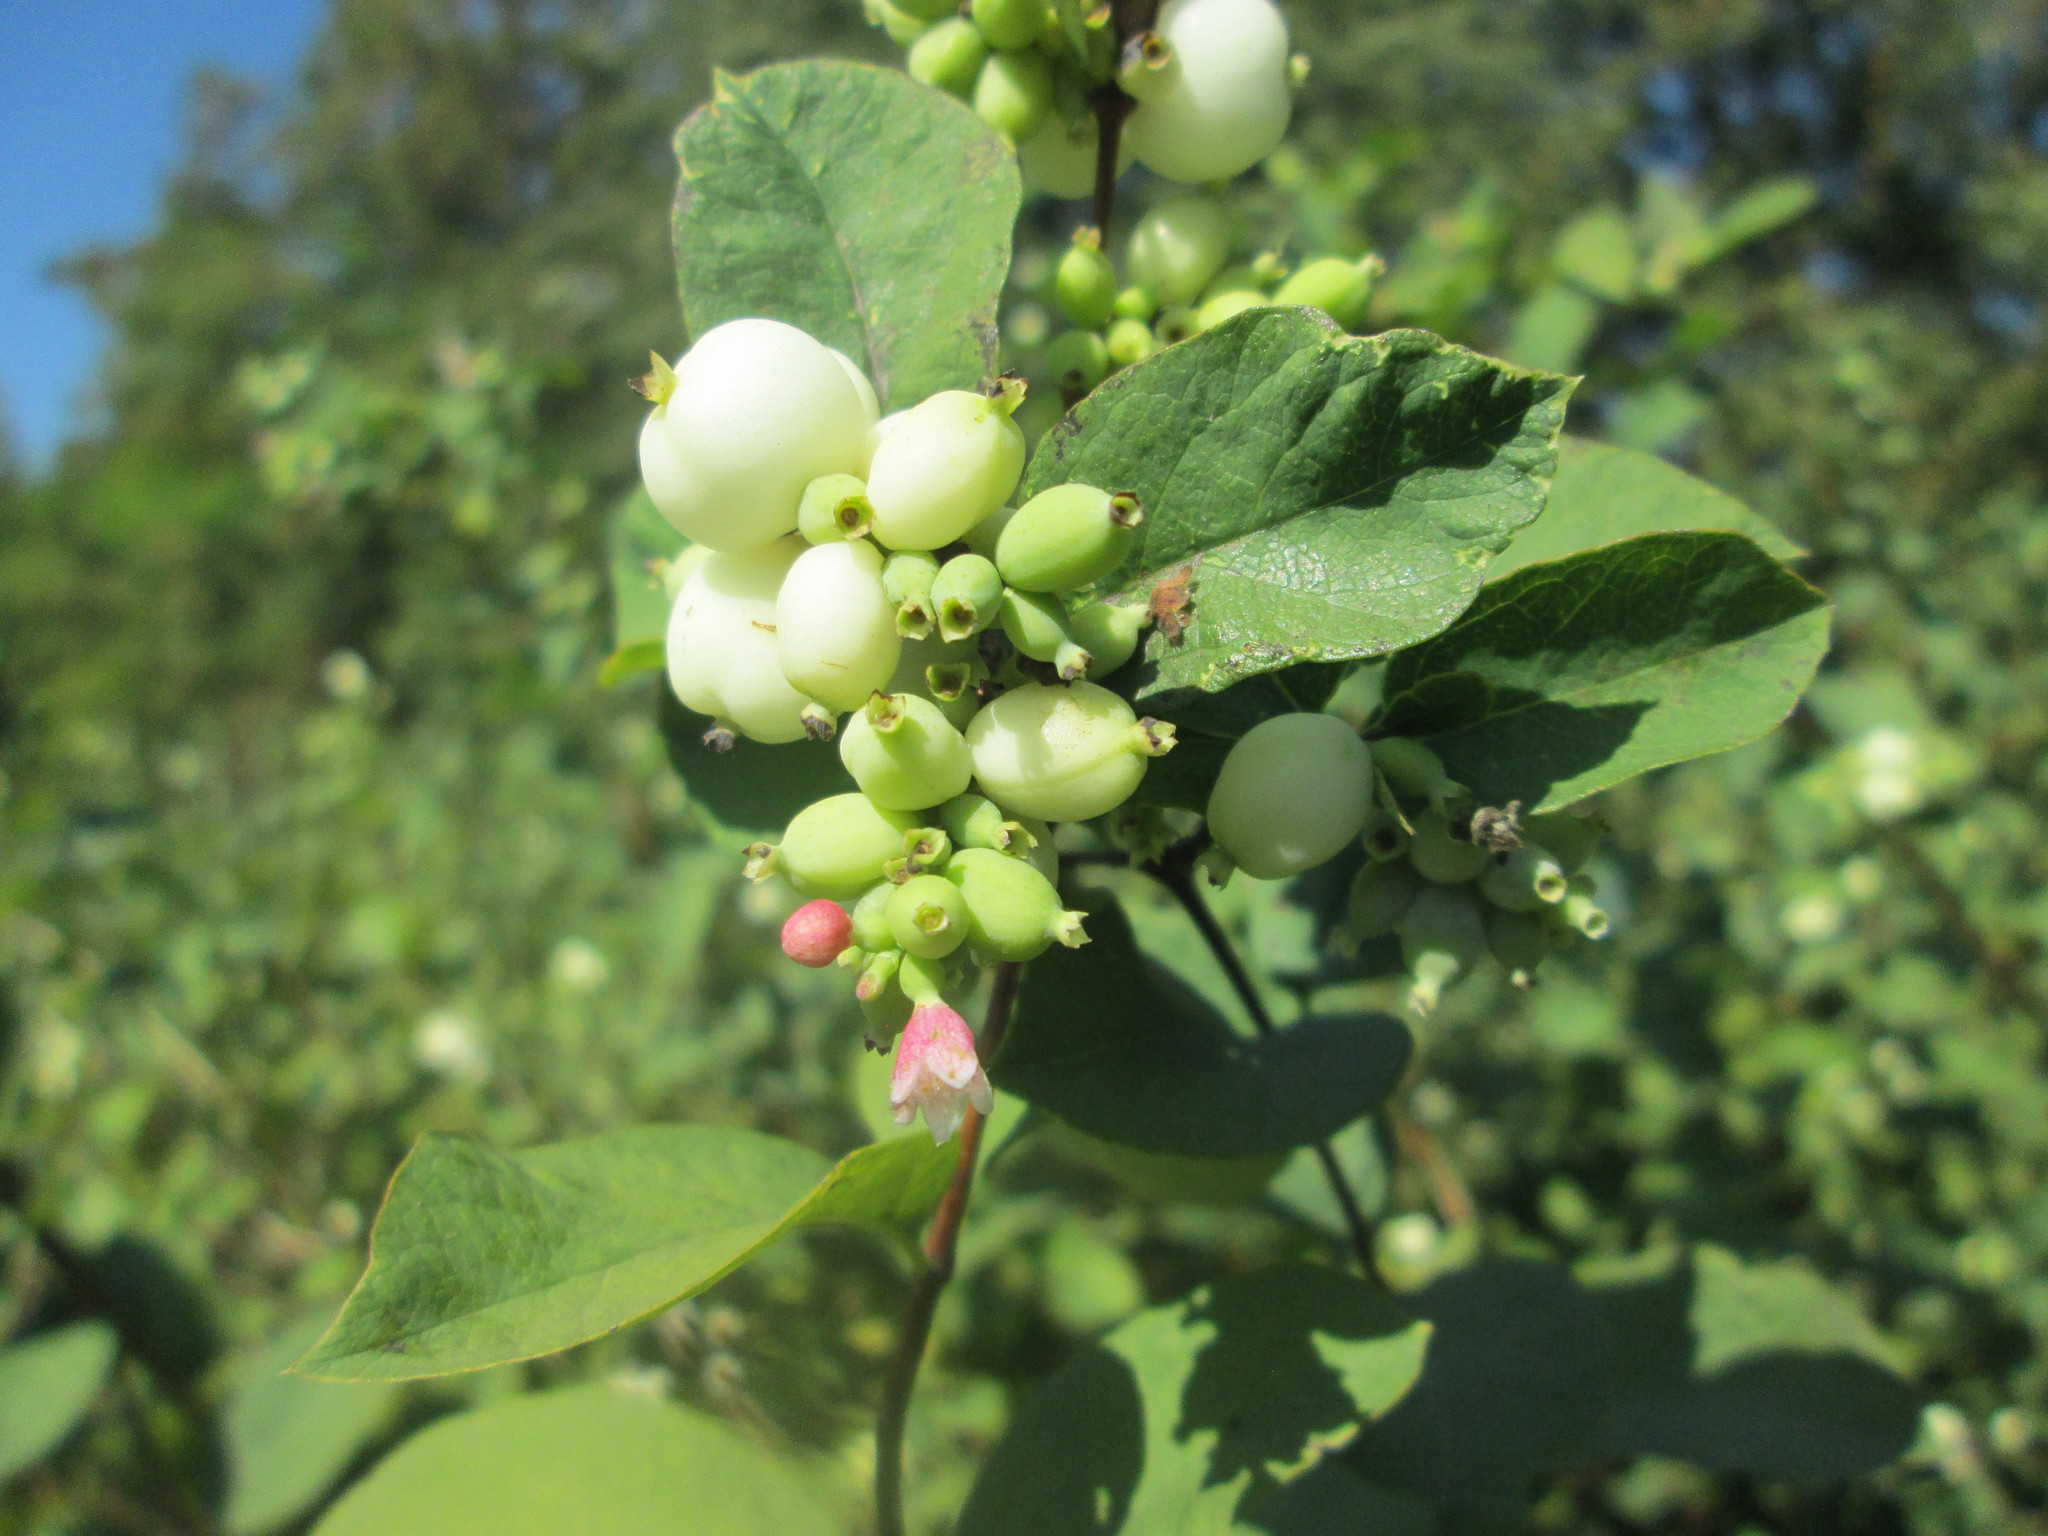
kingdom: Plantae
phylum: Tracheophyta
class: Magnoliopsida
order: Dipsacales
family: Caprifoliaceae
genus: Symphoricarpos
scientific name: Symphoricarpos albus
